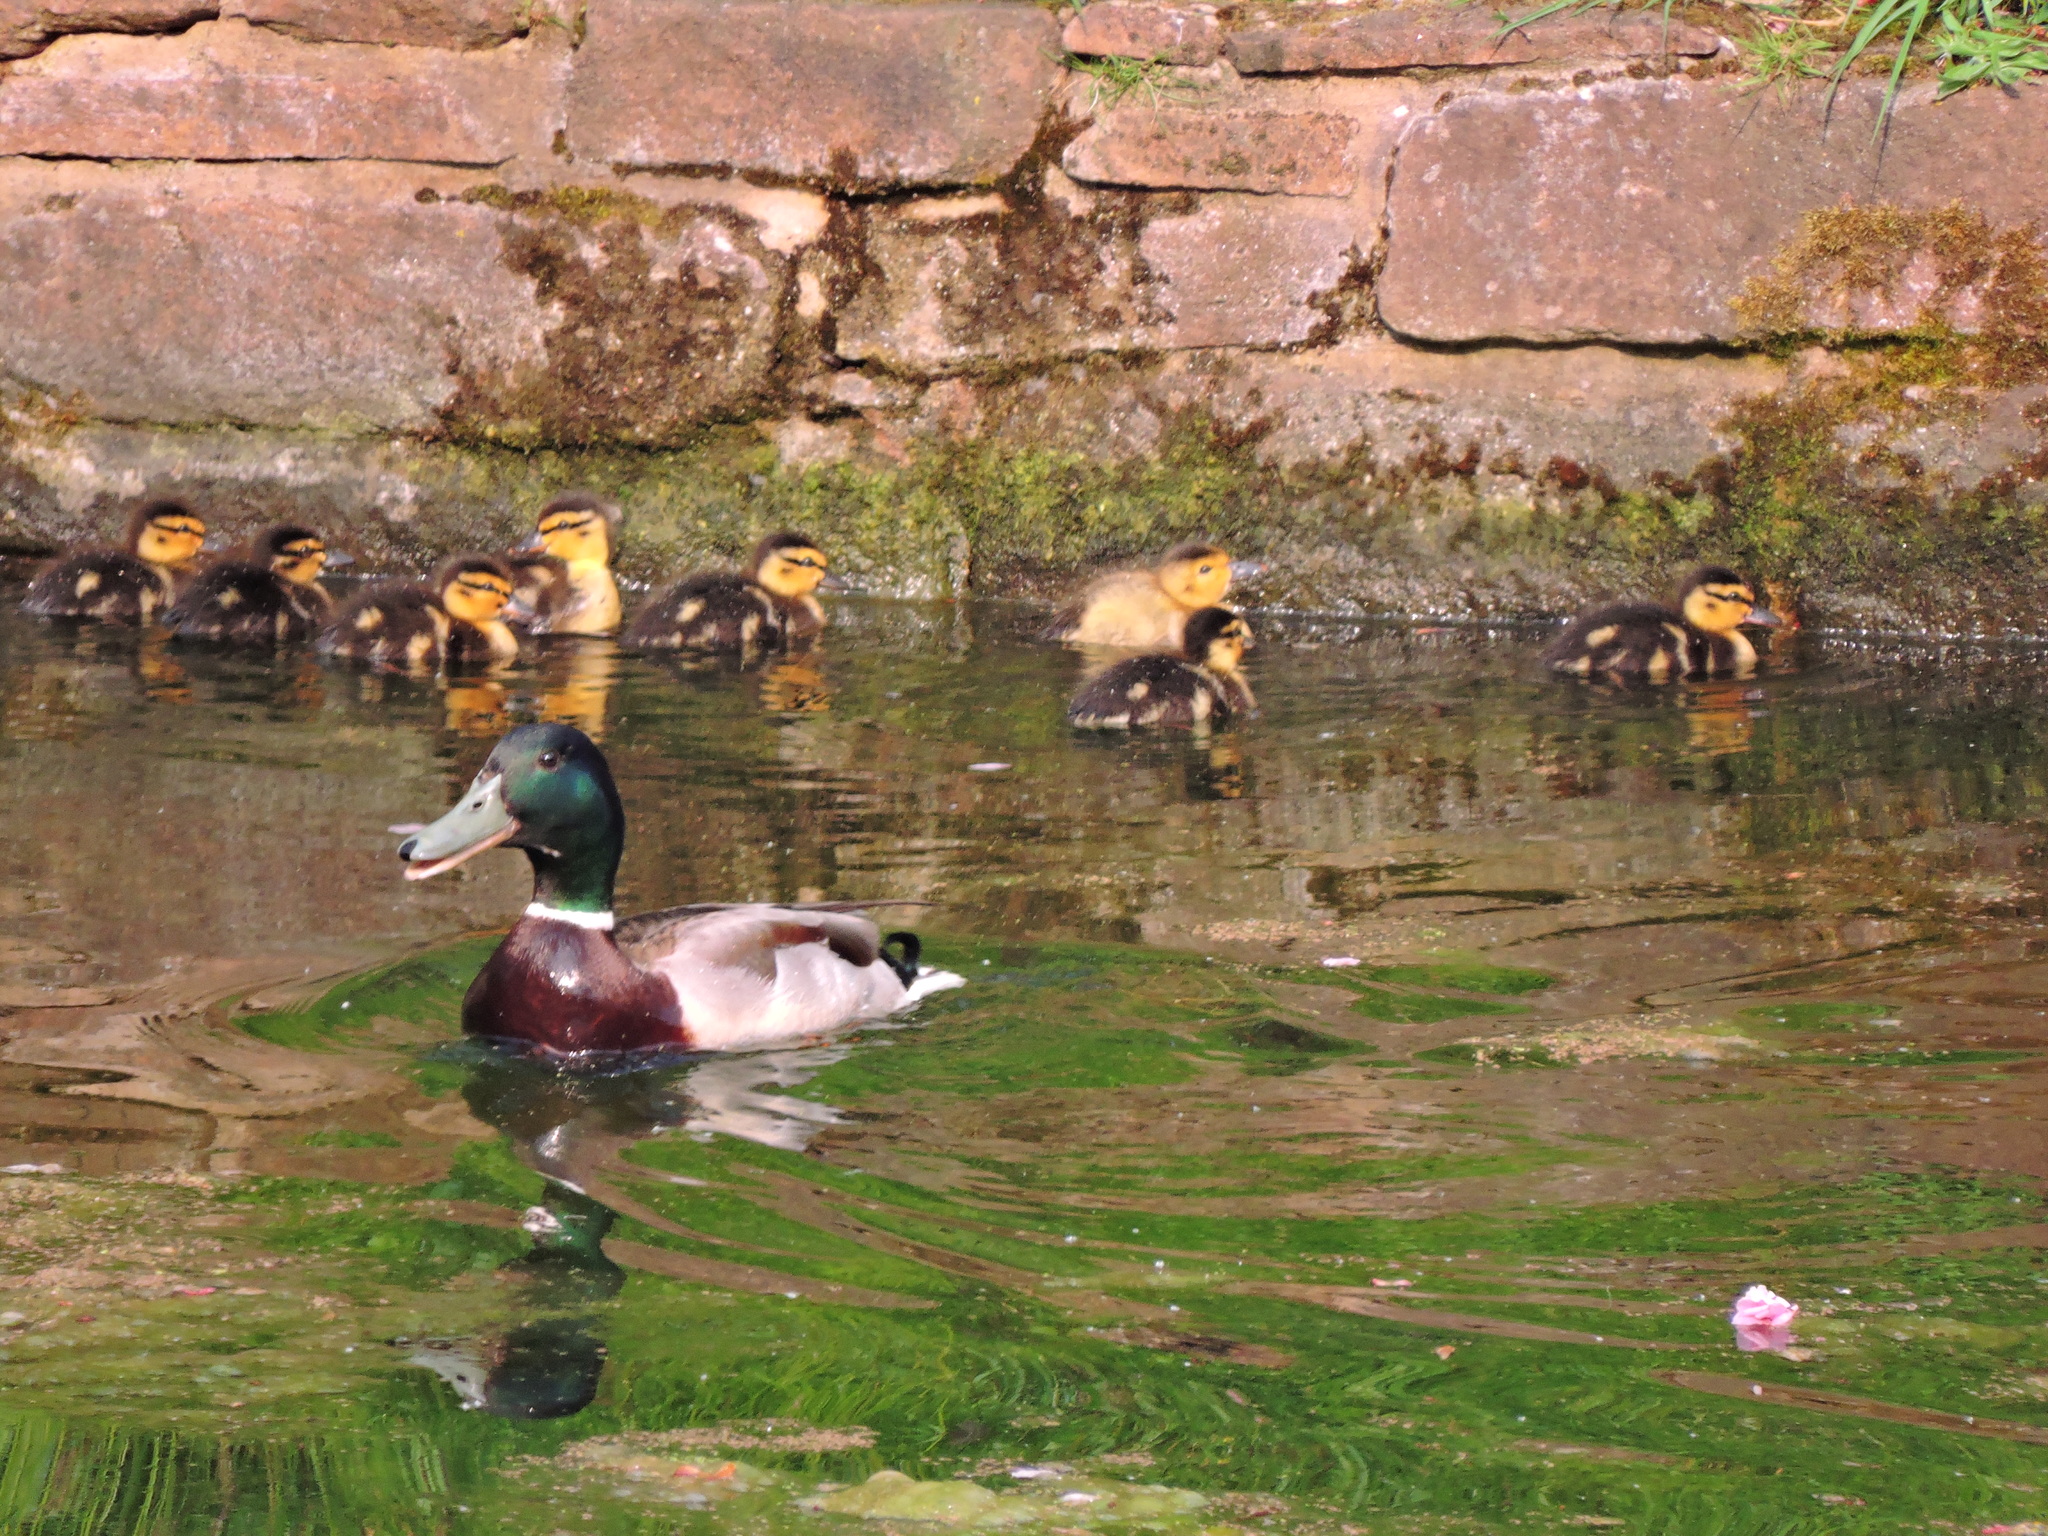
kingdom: Animalia
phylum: Chordata
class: Aves
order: Anseriformes
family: Anatidae
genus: Anas
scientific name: Anas platyrhynchos
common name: Mallard
